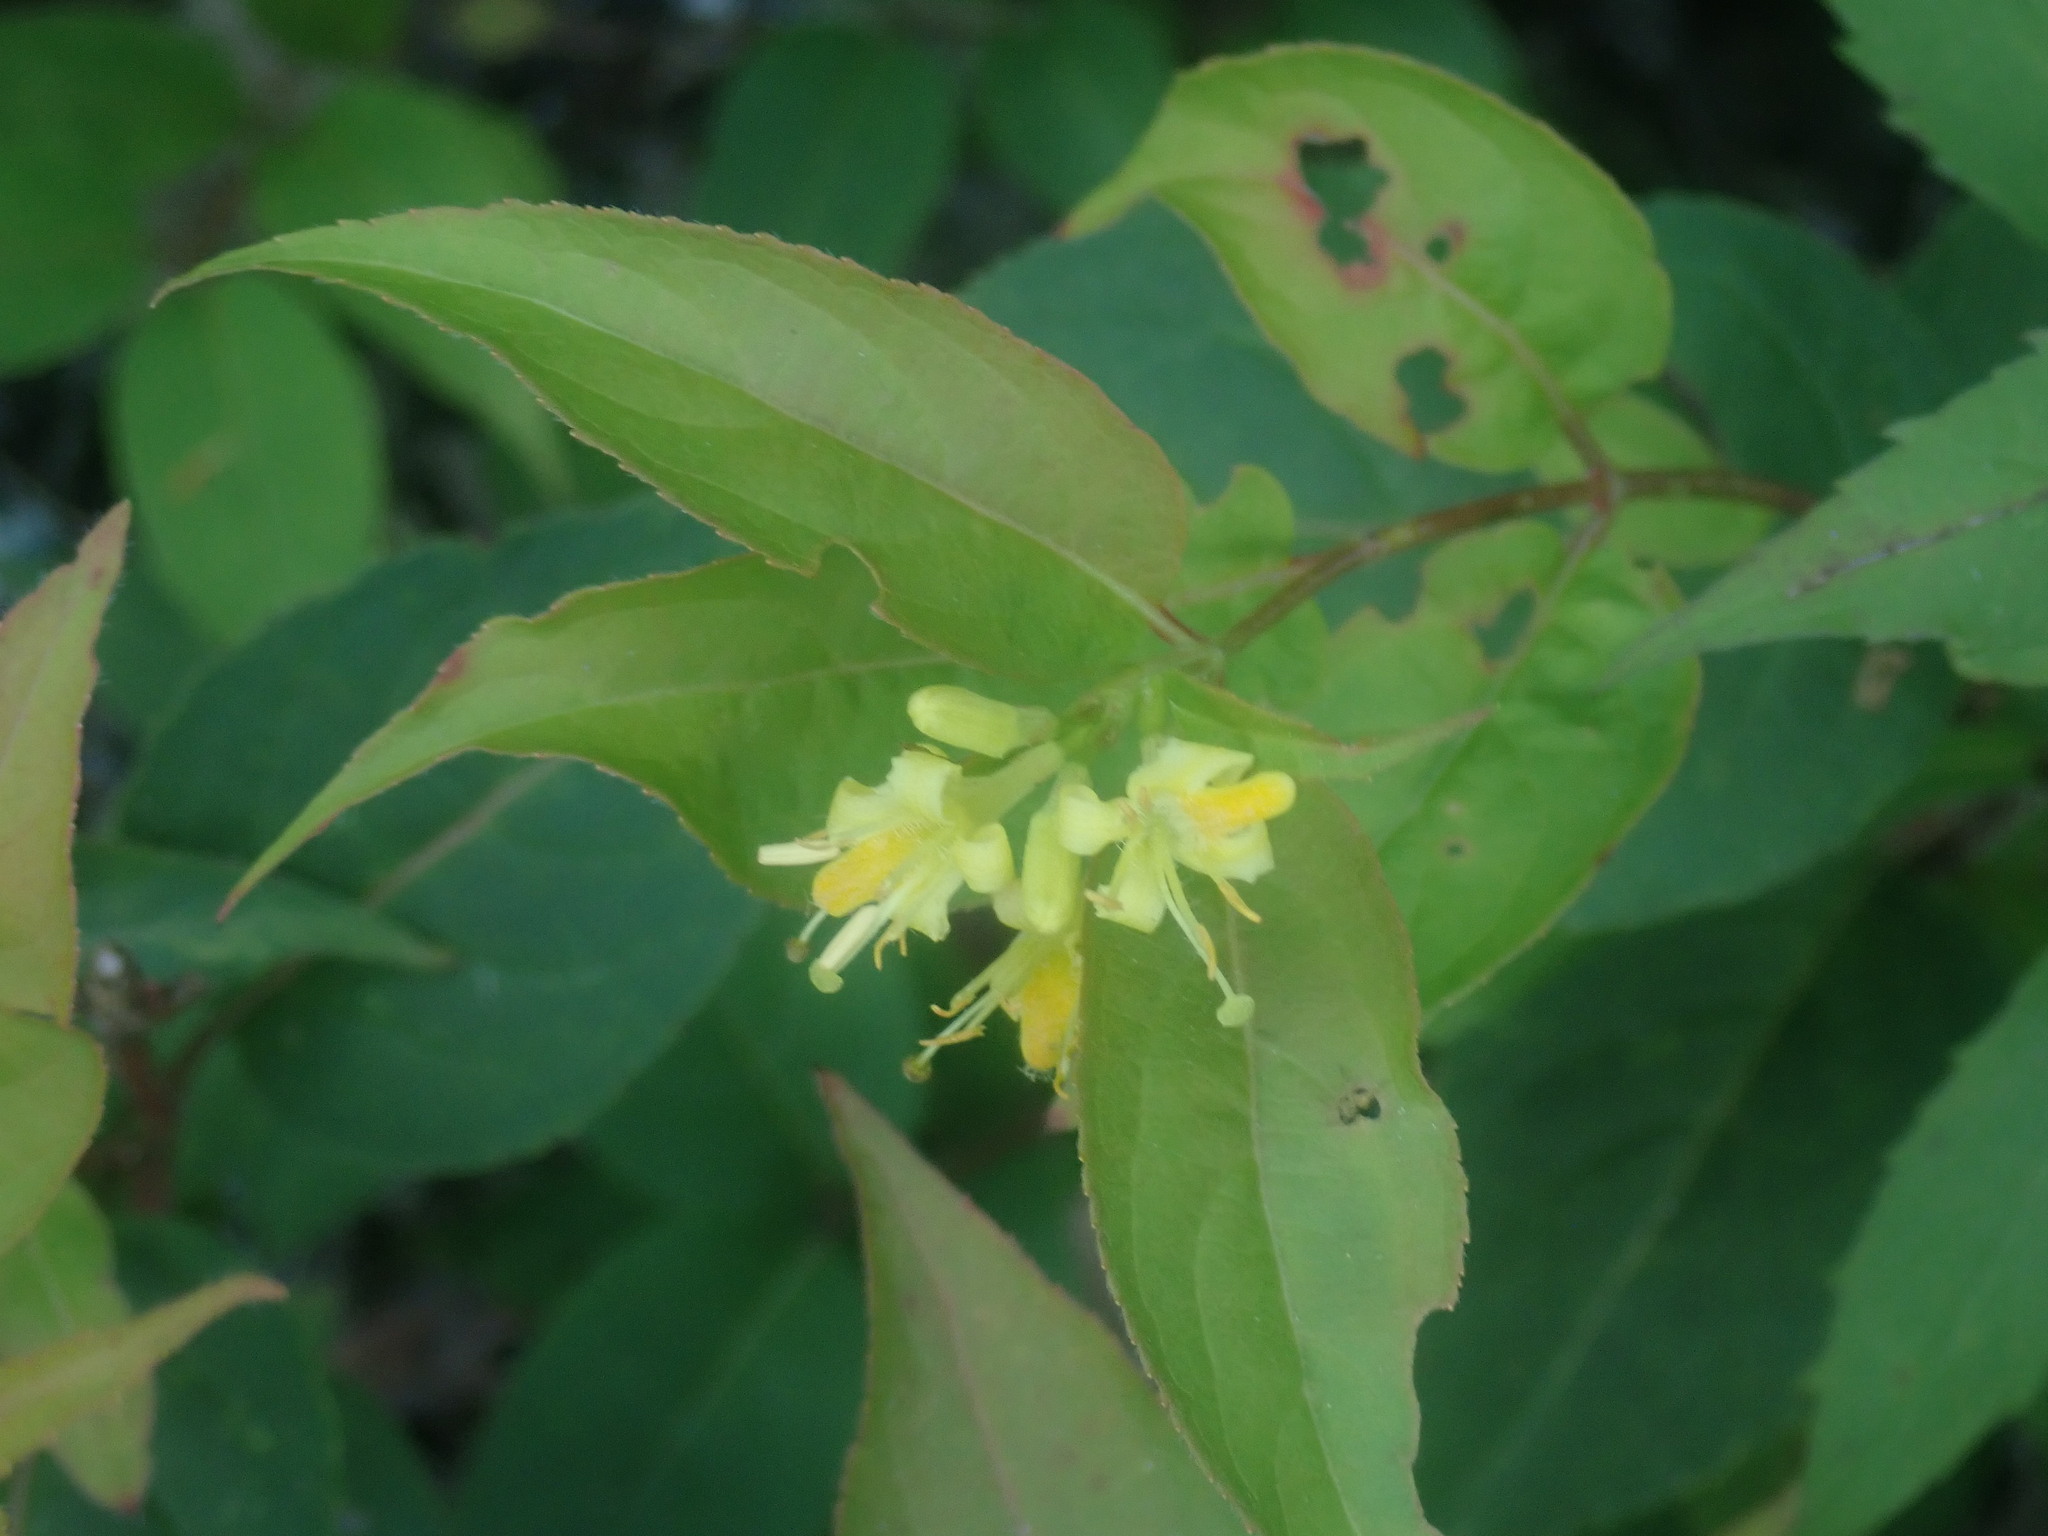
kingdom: Plantae
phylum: Tracheophyta
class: Magnoliopsida
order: Dipsacales
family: Caprifoliaceae
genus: Diervilla
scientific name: Diervilla lonicera
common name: Bush-honeysuckle
